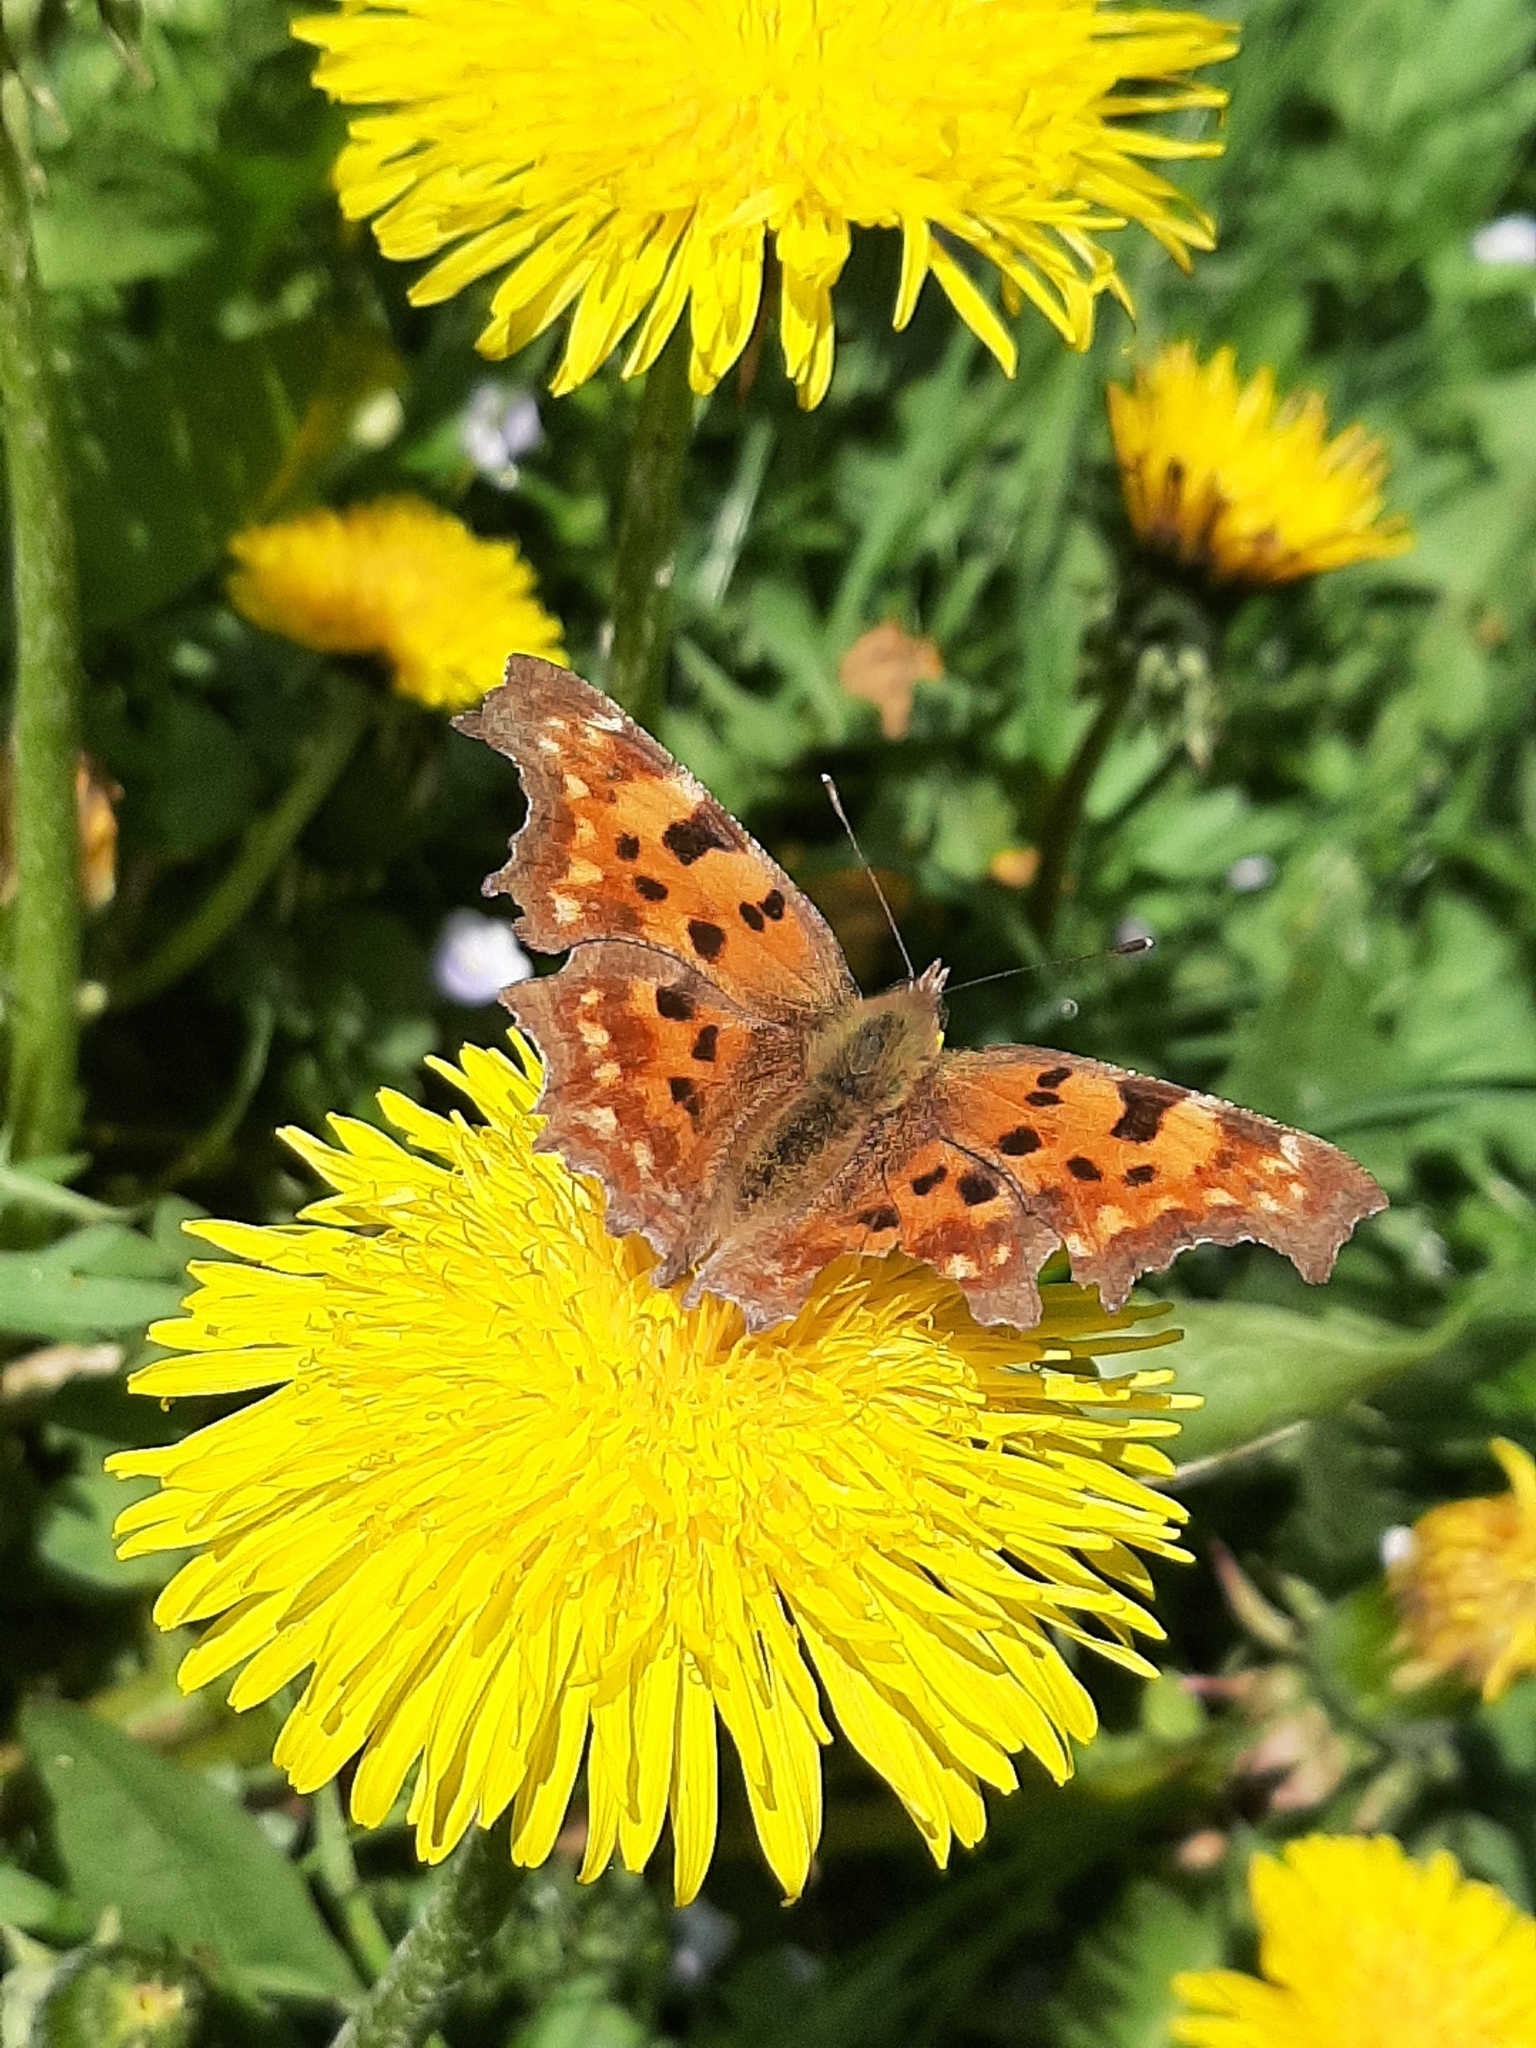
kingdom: Animalia
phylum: Arthropoda
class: Insecta
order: Lepidoptera
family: Nymphalidae
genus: Polygonia
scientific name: Polygonia c-album
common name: Comma
